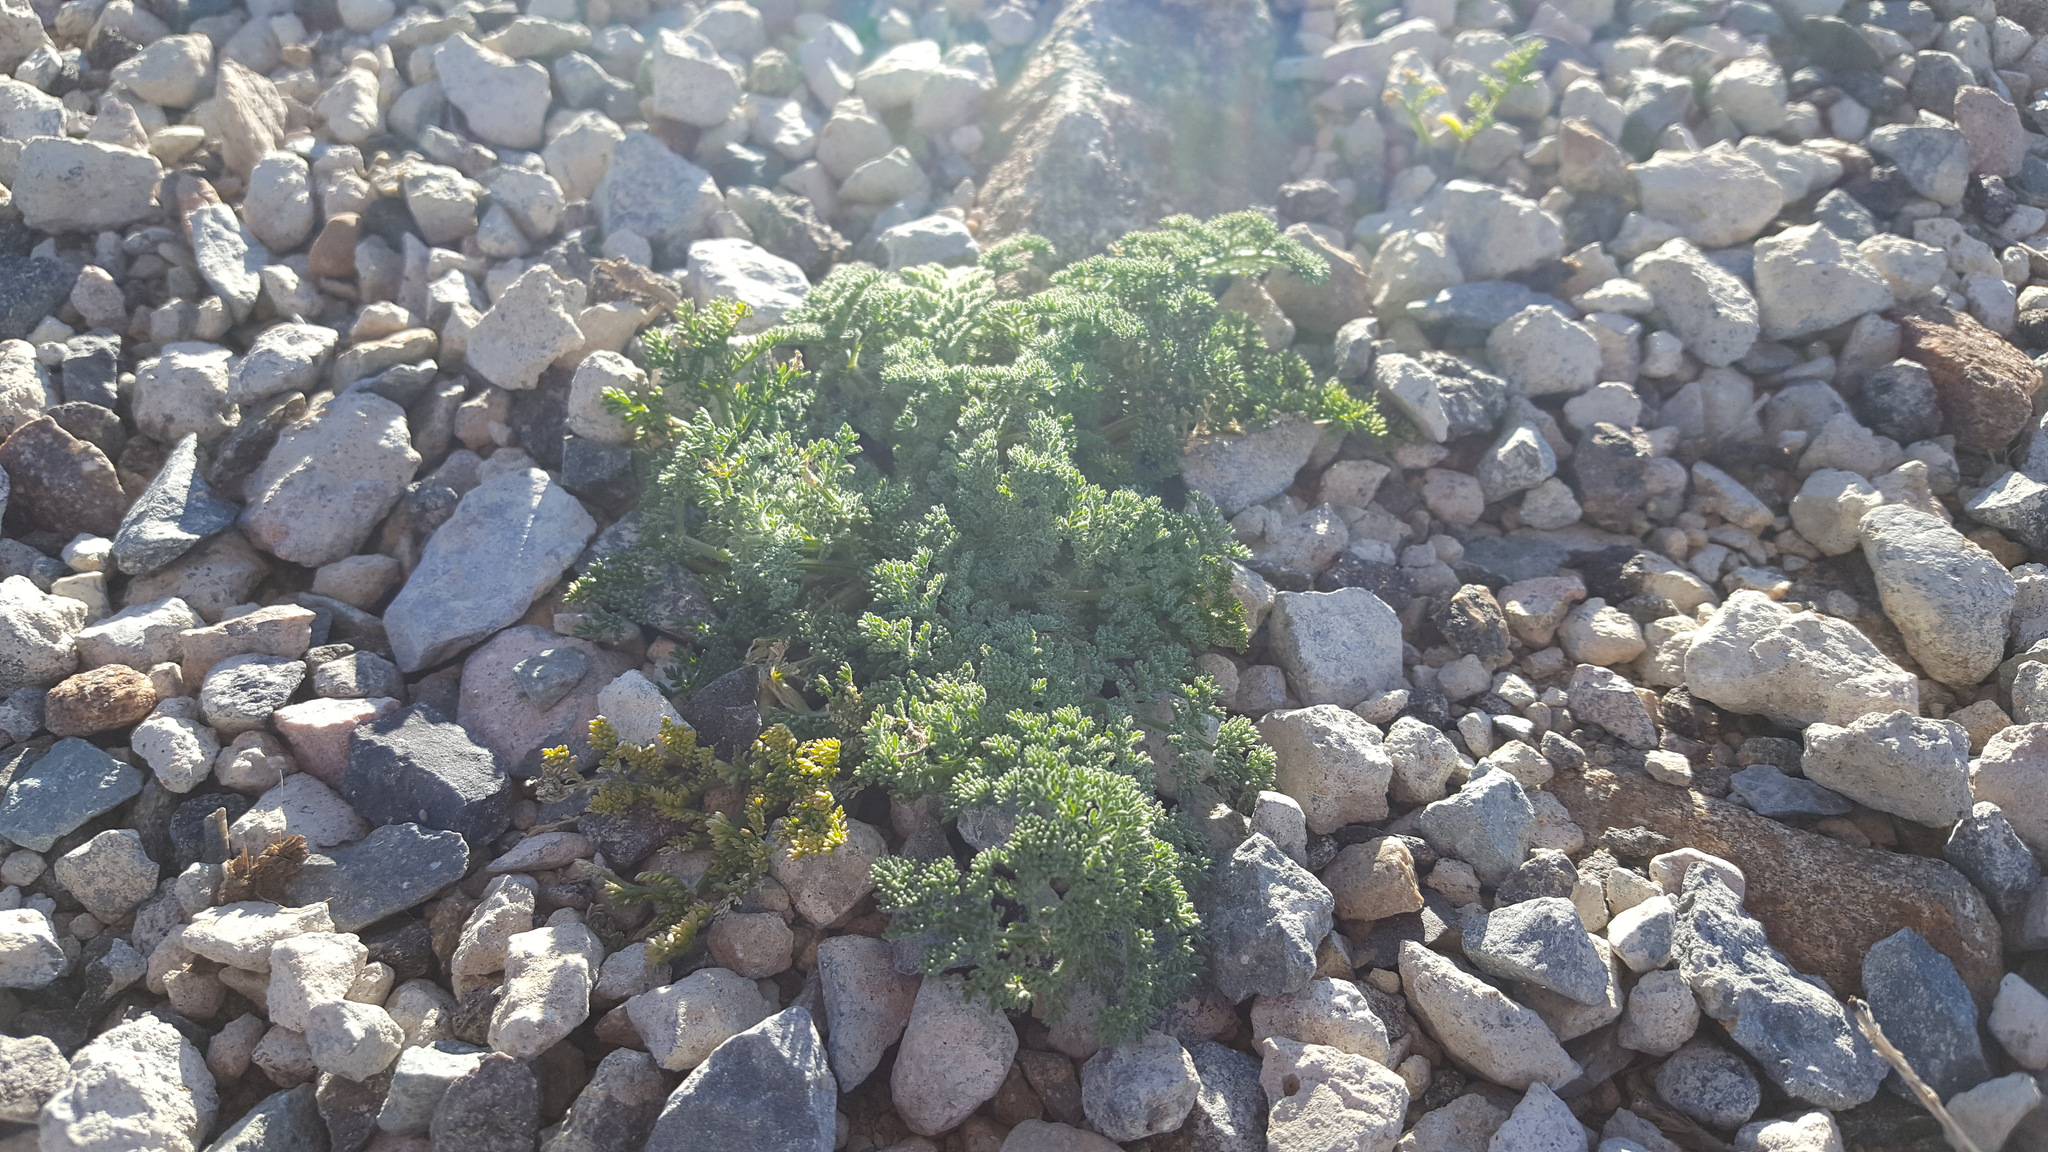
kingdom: Plantae
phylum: Tracheophyta
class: Magnoliopsida
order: Apiales
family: Apiaceae
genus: Lomatium
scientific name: Lomatium dasycarpum
